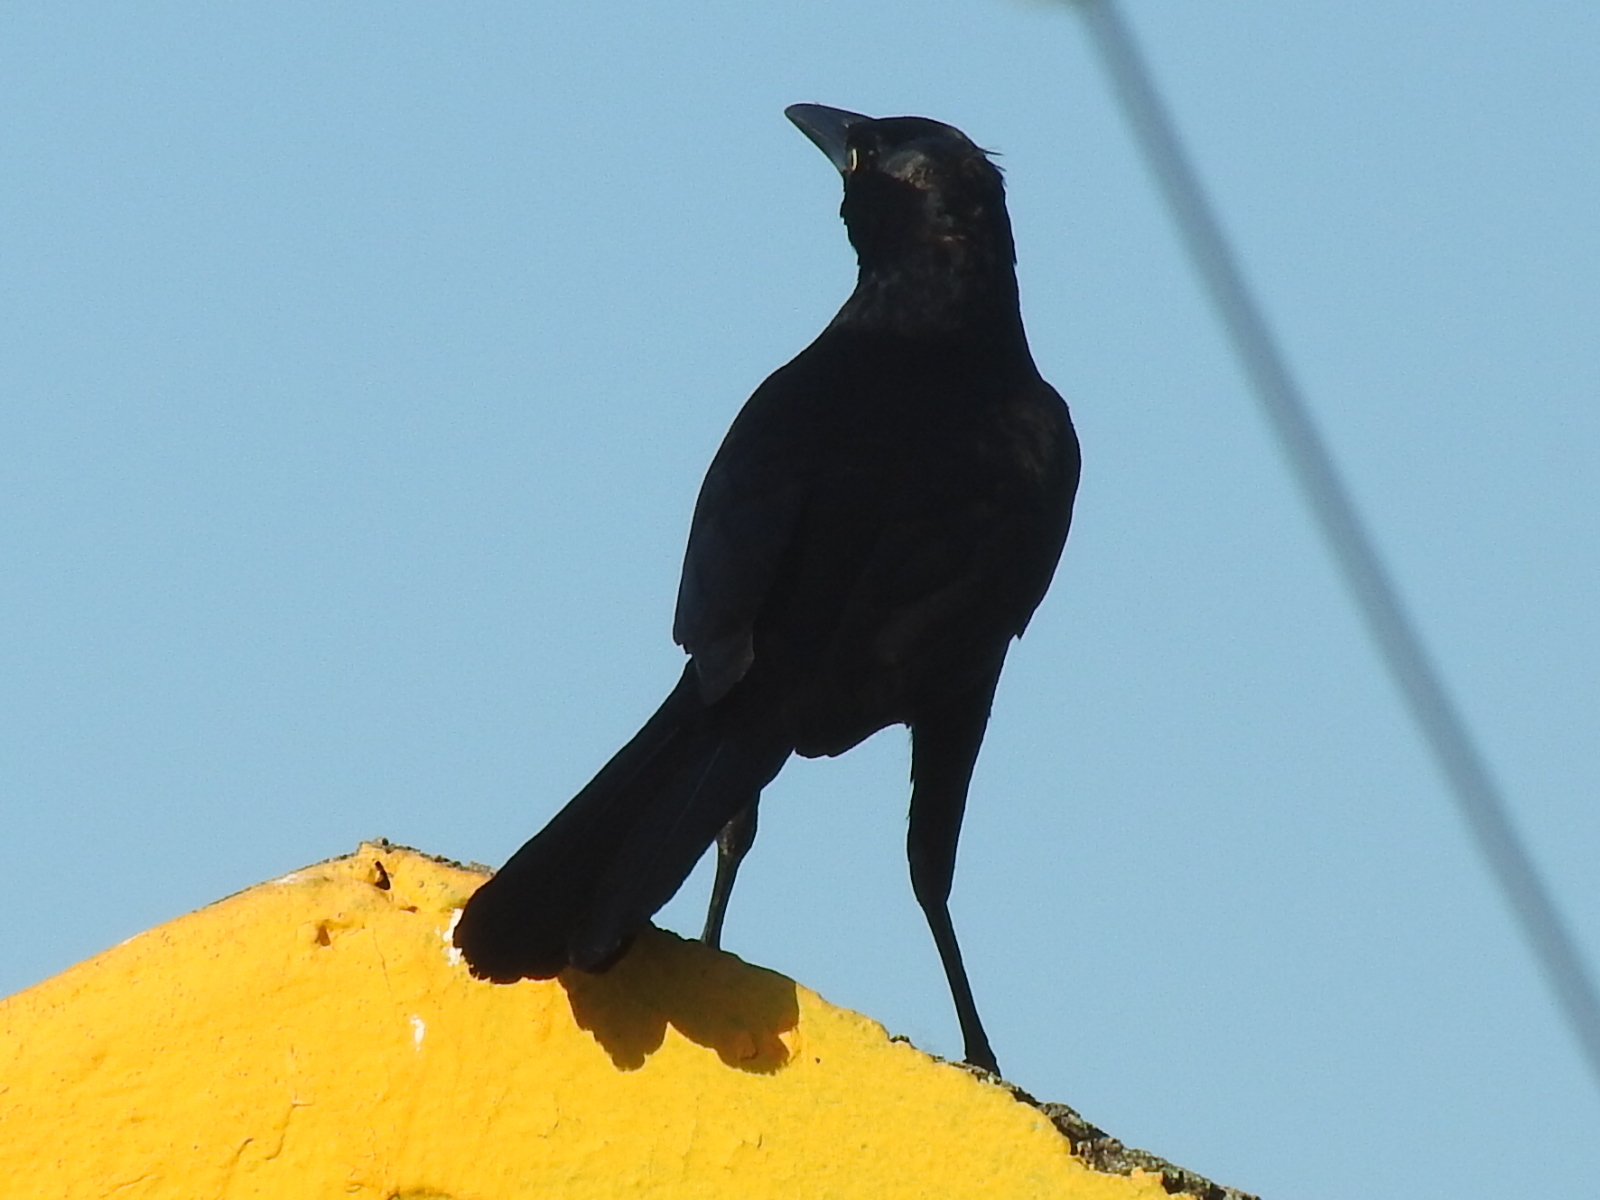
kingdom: Animalia
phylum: Chordata
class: Aves
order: Passeriformes
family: Icteridae
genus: Quiscalus
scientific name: Quiscalus mexicanus
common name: Great-tailed grackle
